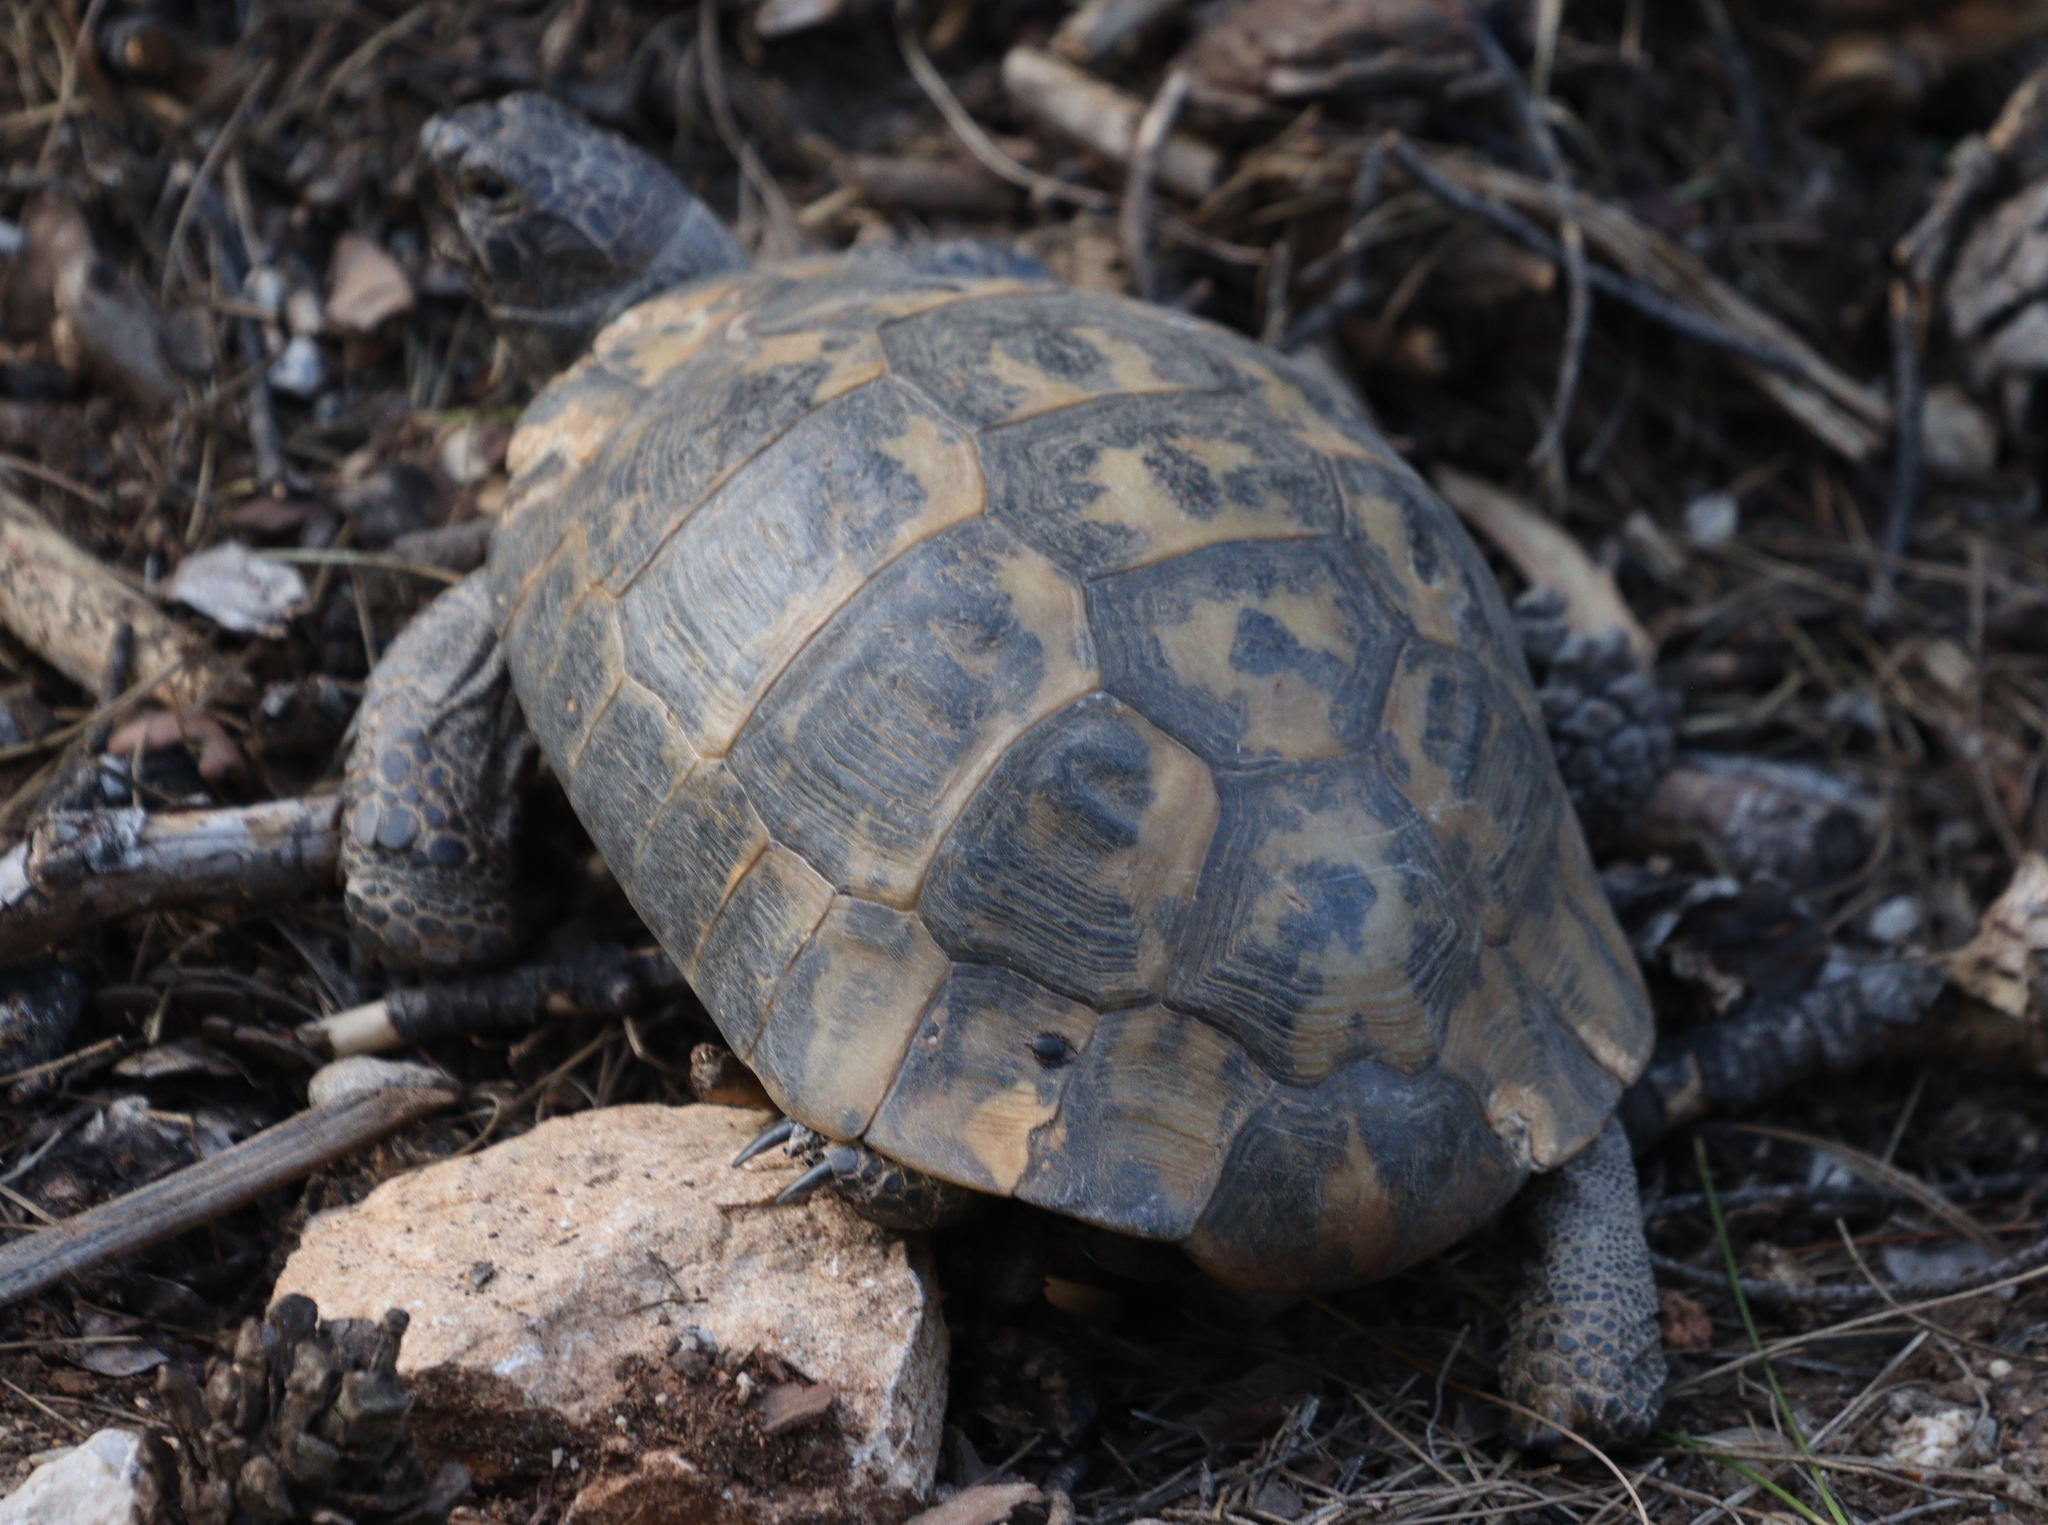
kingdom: Animalia
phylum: Chordata
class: Testudines
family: Testudinidae
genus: Testudo
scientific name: Testudo graeca
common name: Common tortoise
